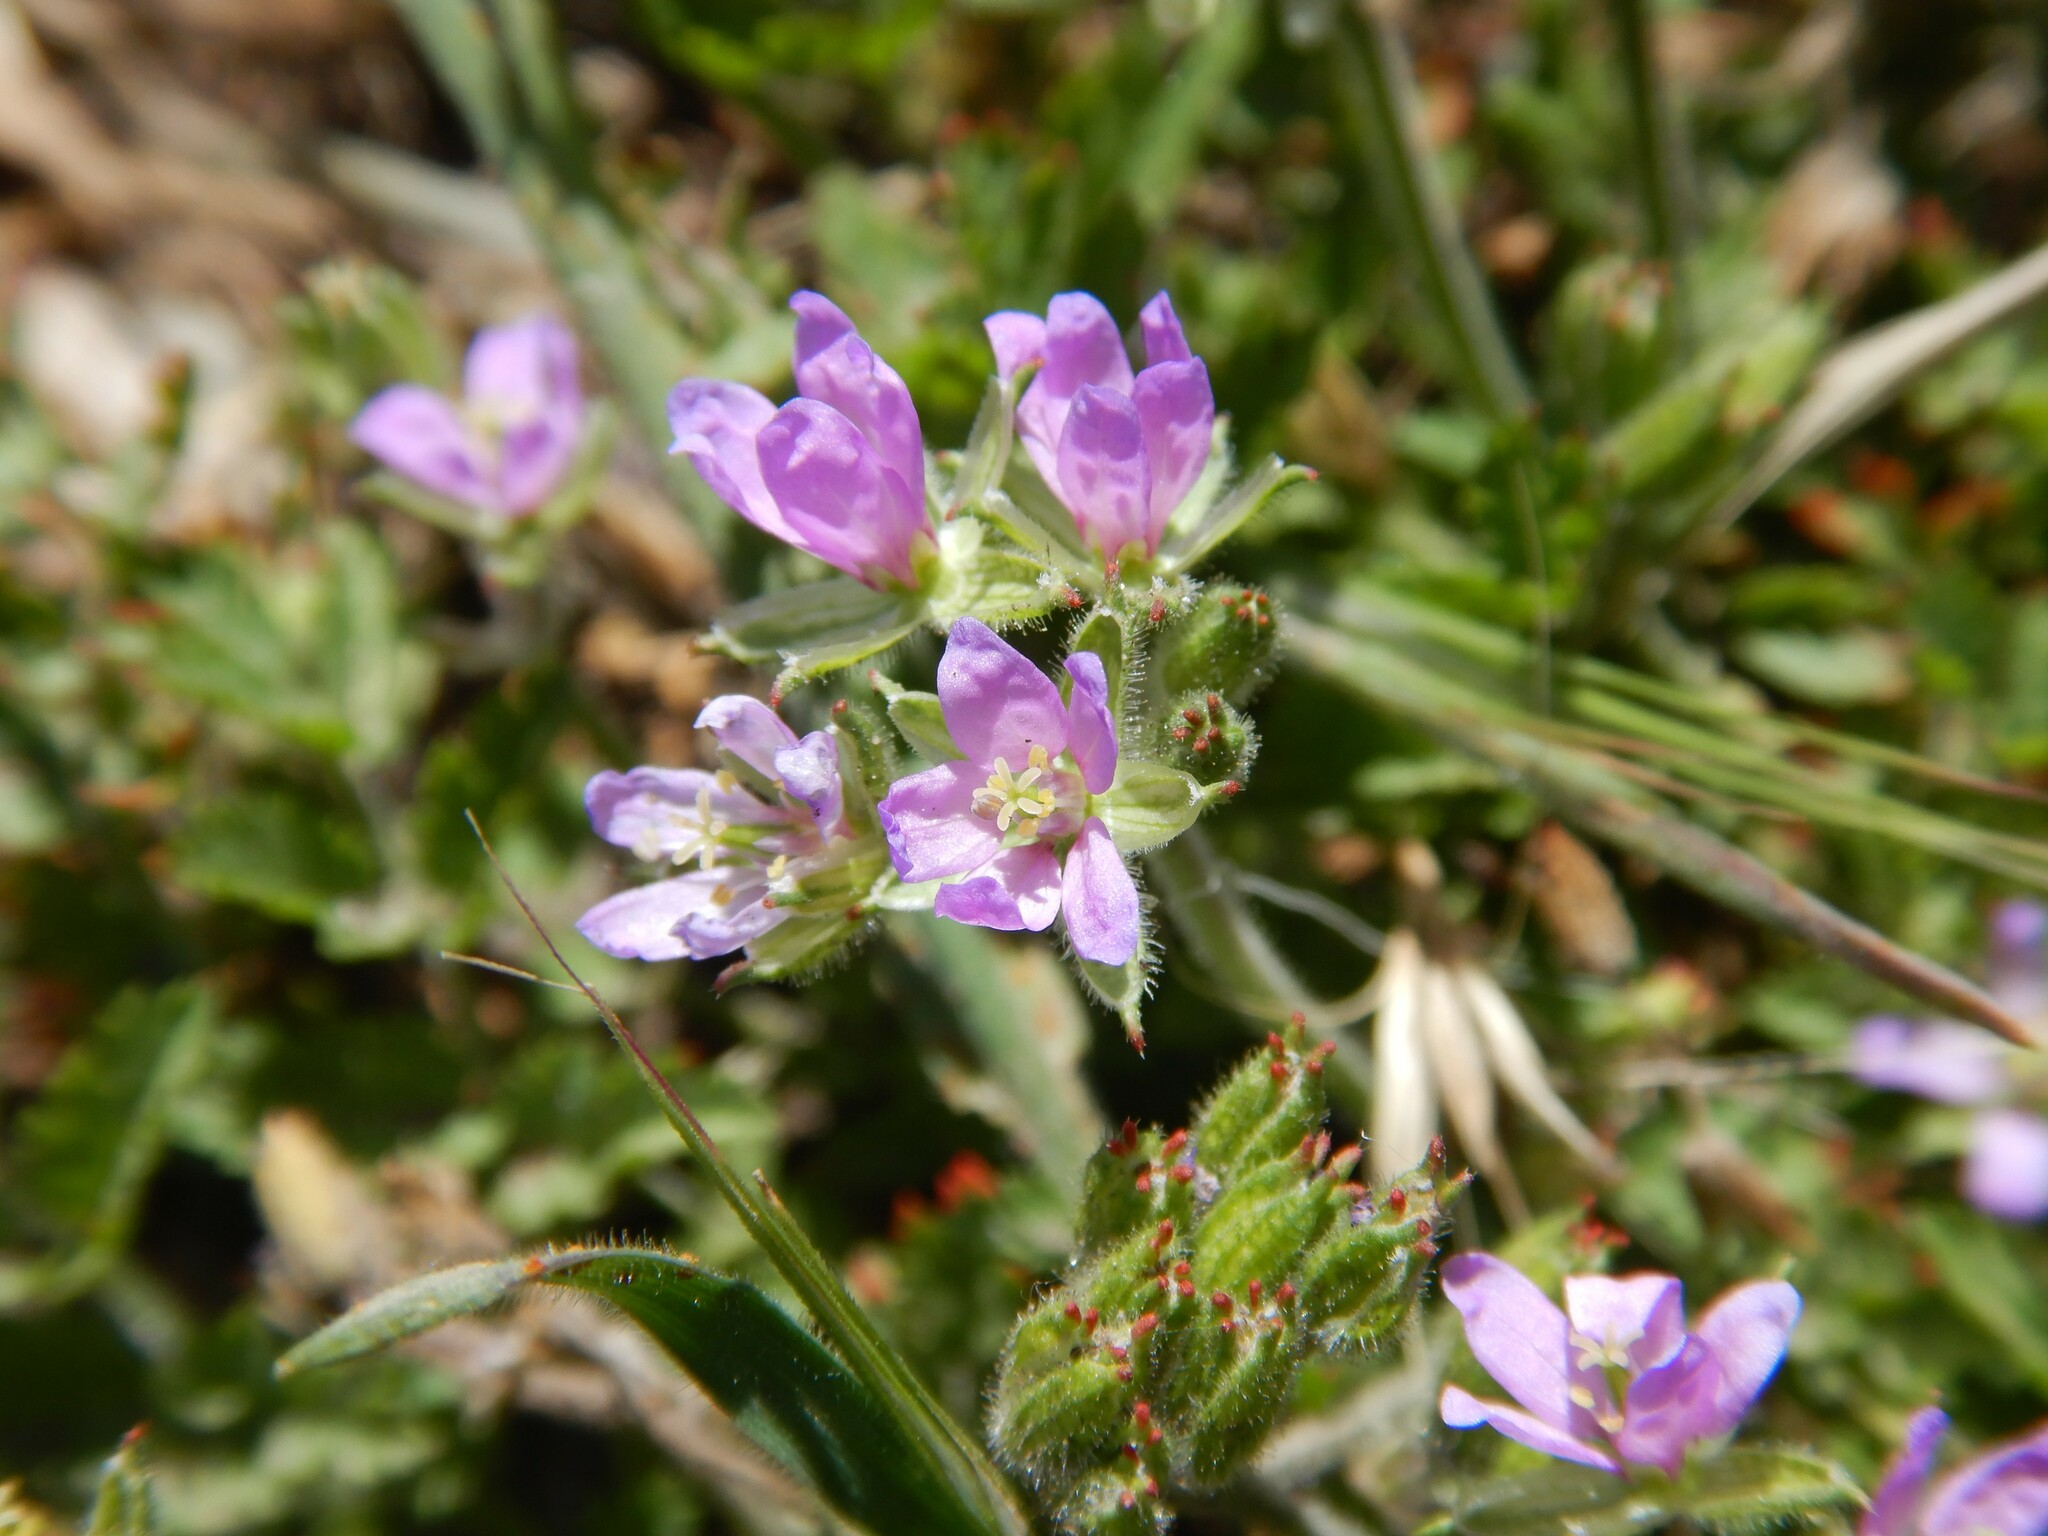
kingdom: Plantae
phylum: Tracheophyta
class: Magnoliopsida
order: Geraniales
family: Geraniaceae
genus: Erodium
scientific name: Erodium cicutarium
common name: Common stork's-bill
